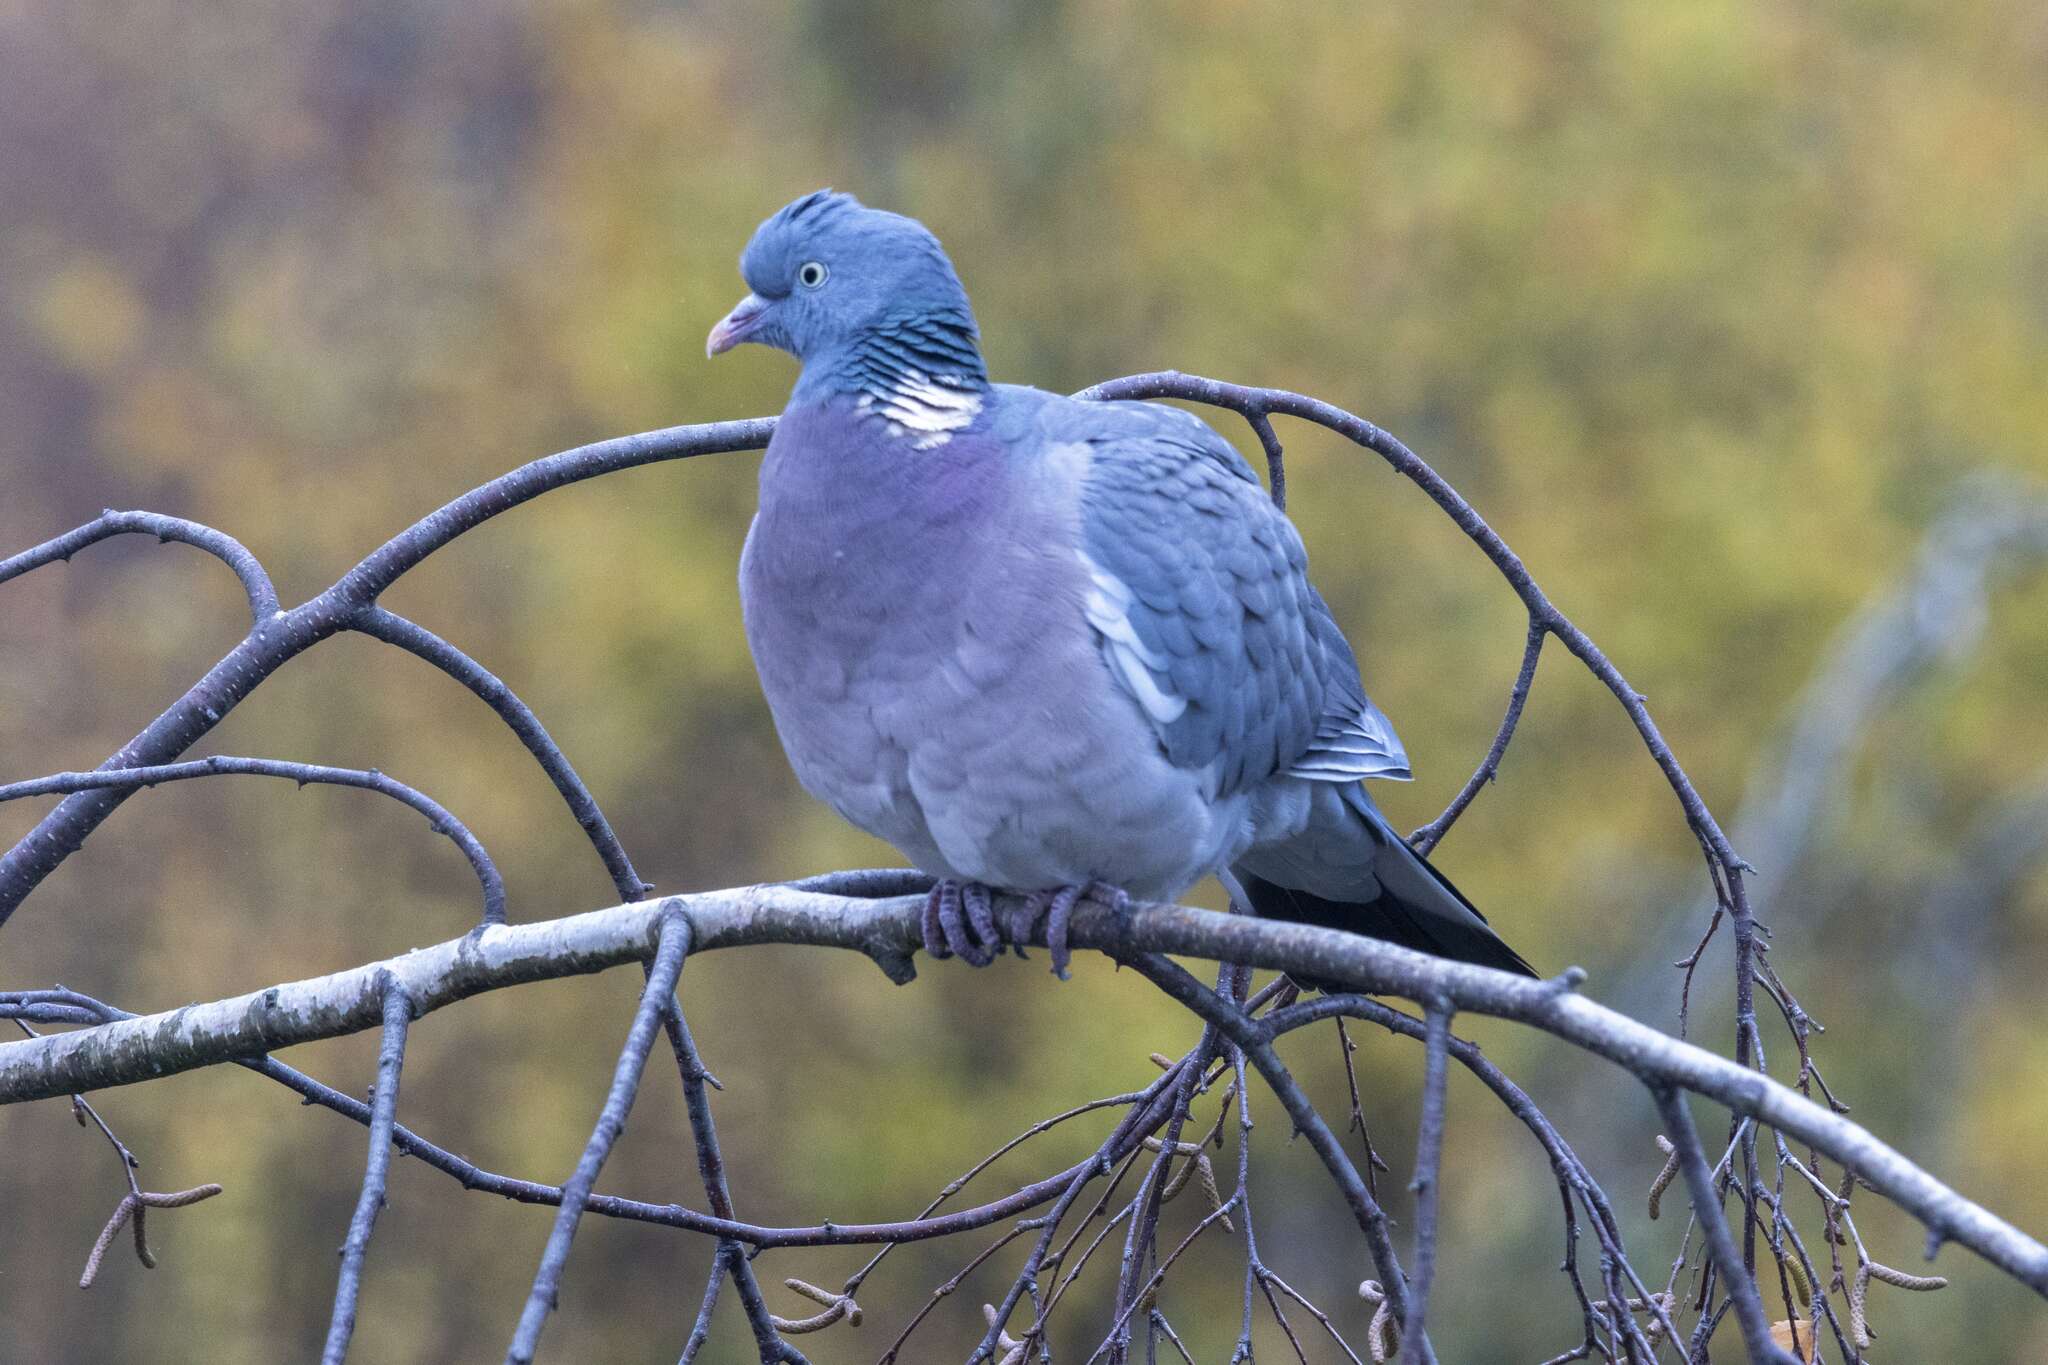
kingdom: Animalia
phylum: Chordata
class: Aves
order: Columbiformes
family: Columbidae
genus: Columba
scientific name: Columba palumbus
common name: Common wood pigeon
